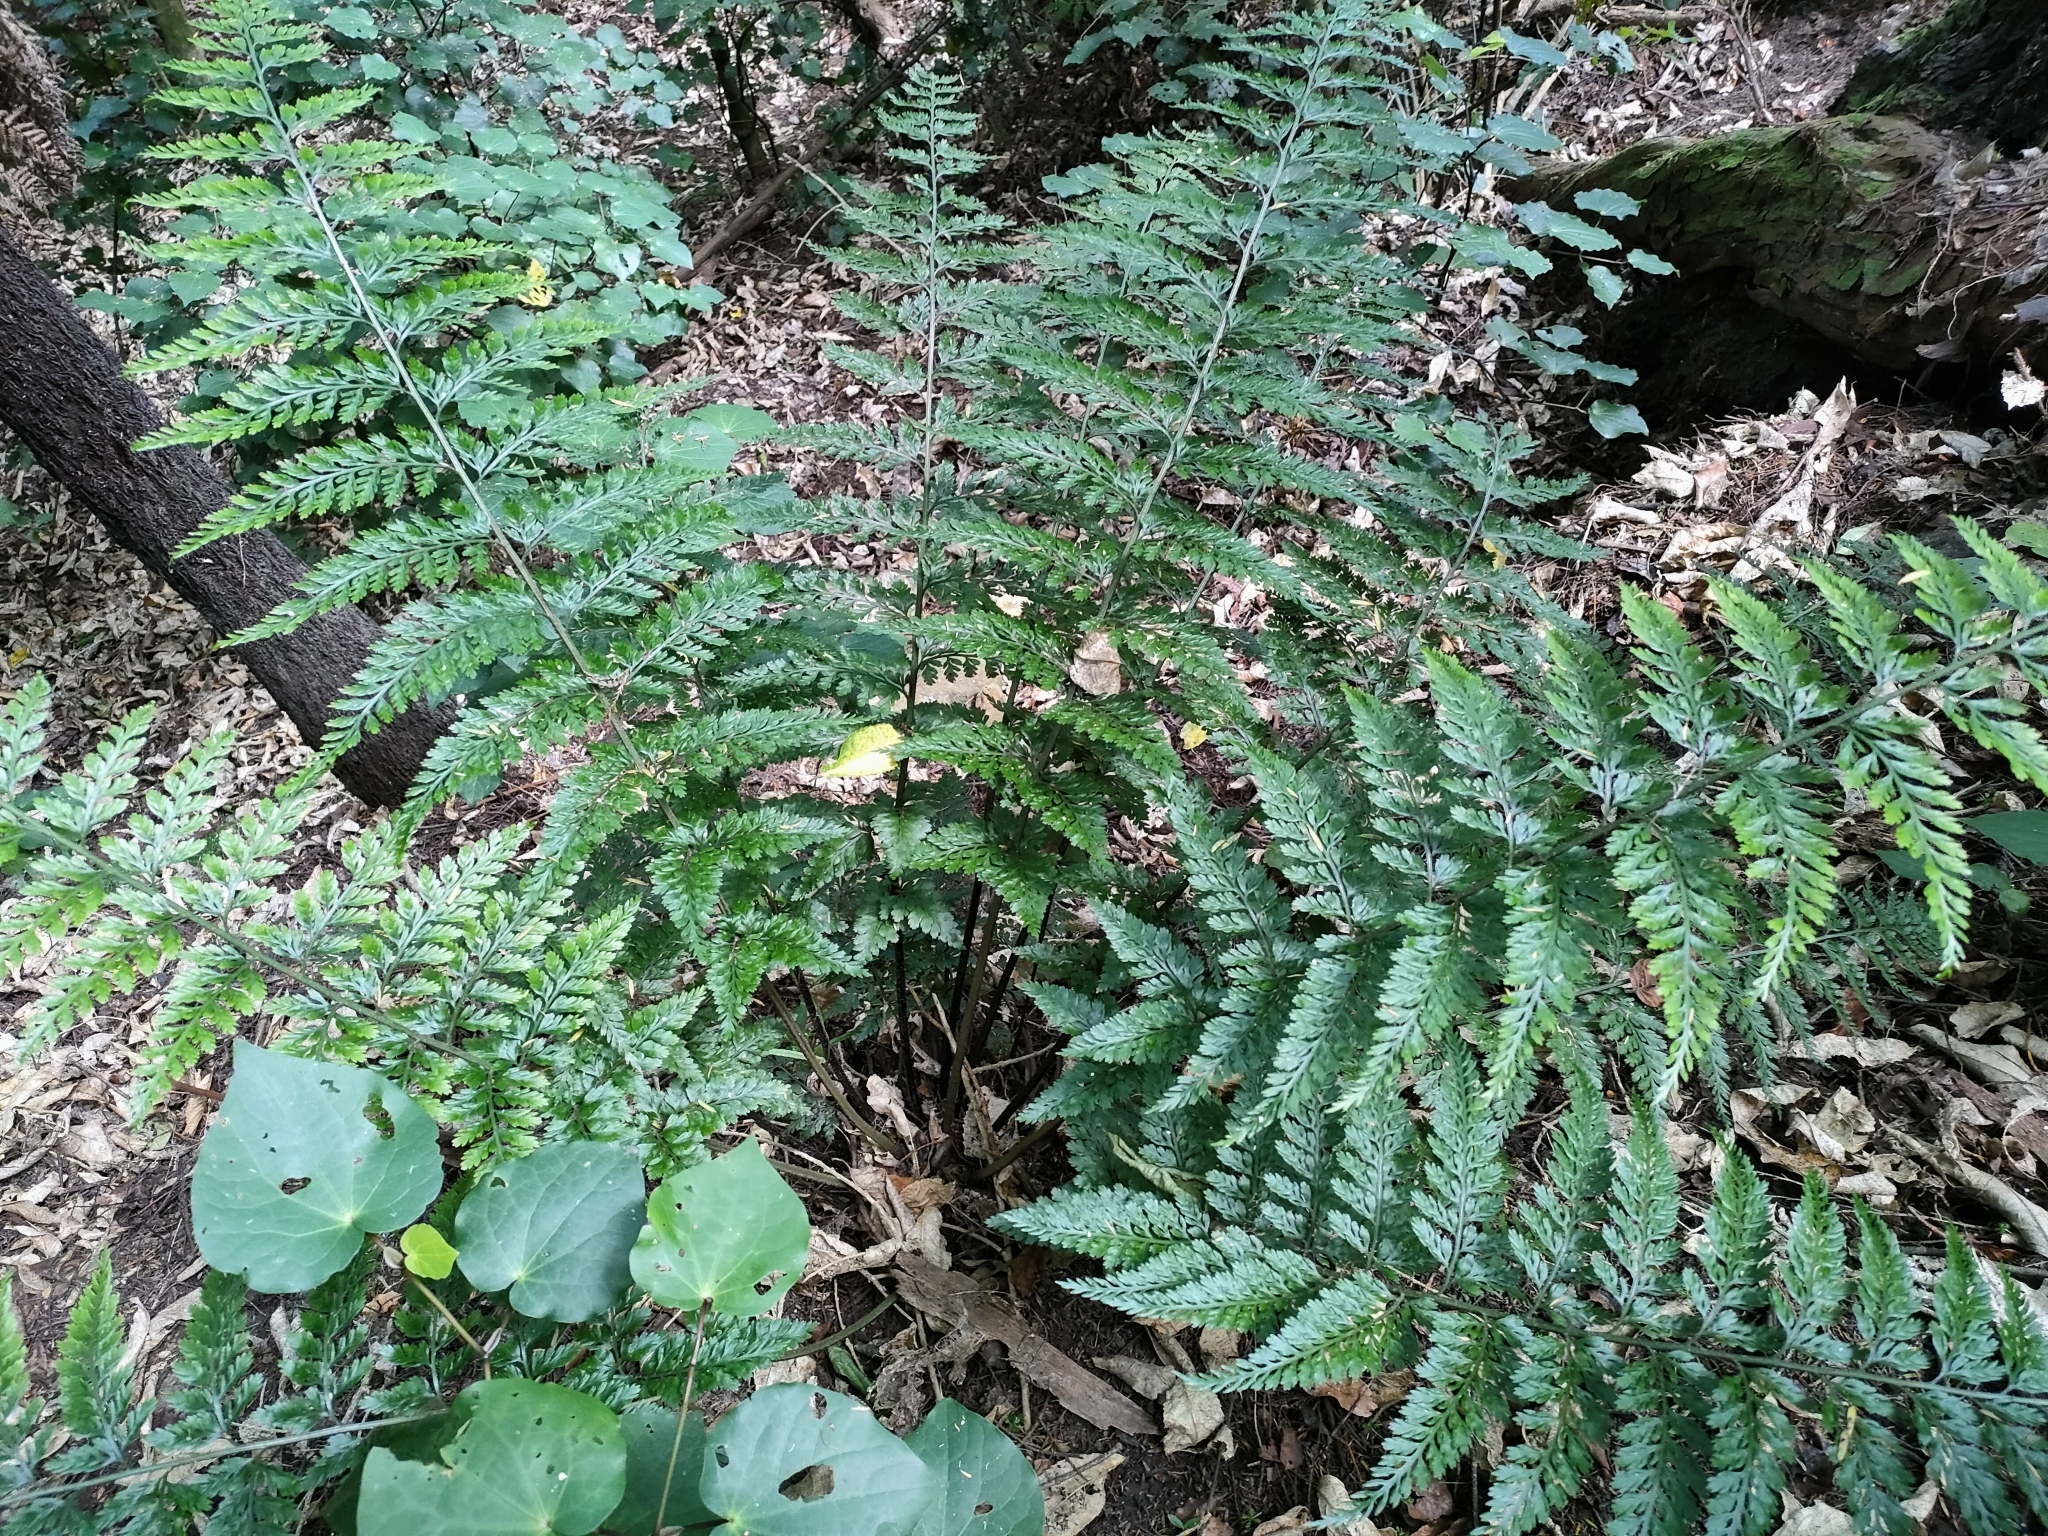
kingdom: Plantae
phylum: Tracheophyta
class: Polypodiopsida
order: Polypodiales
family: Aspleniaceae
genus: Asplenium
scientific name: Asplenium
